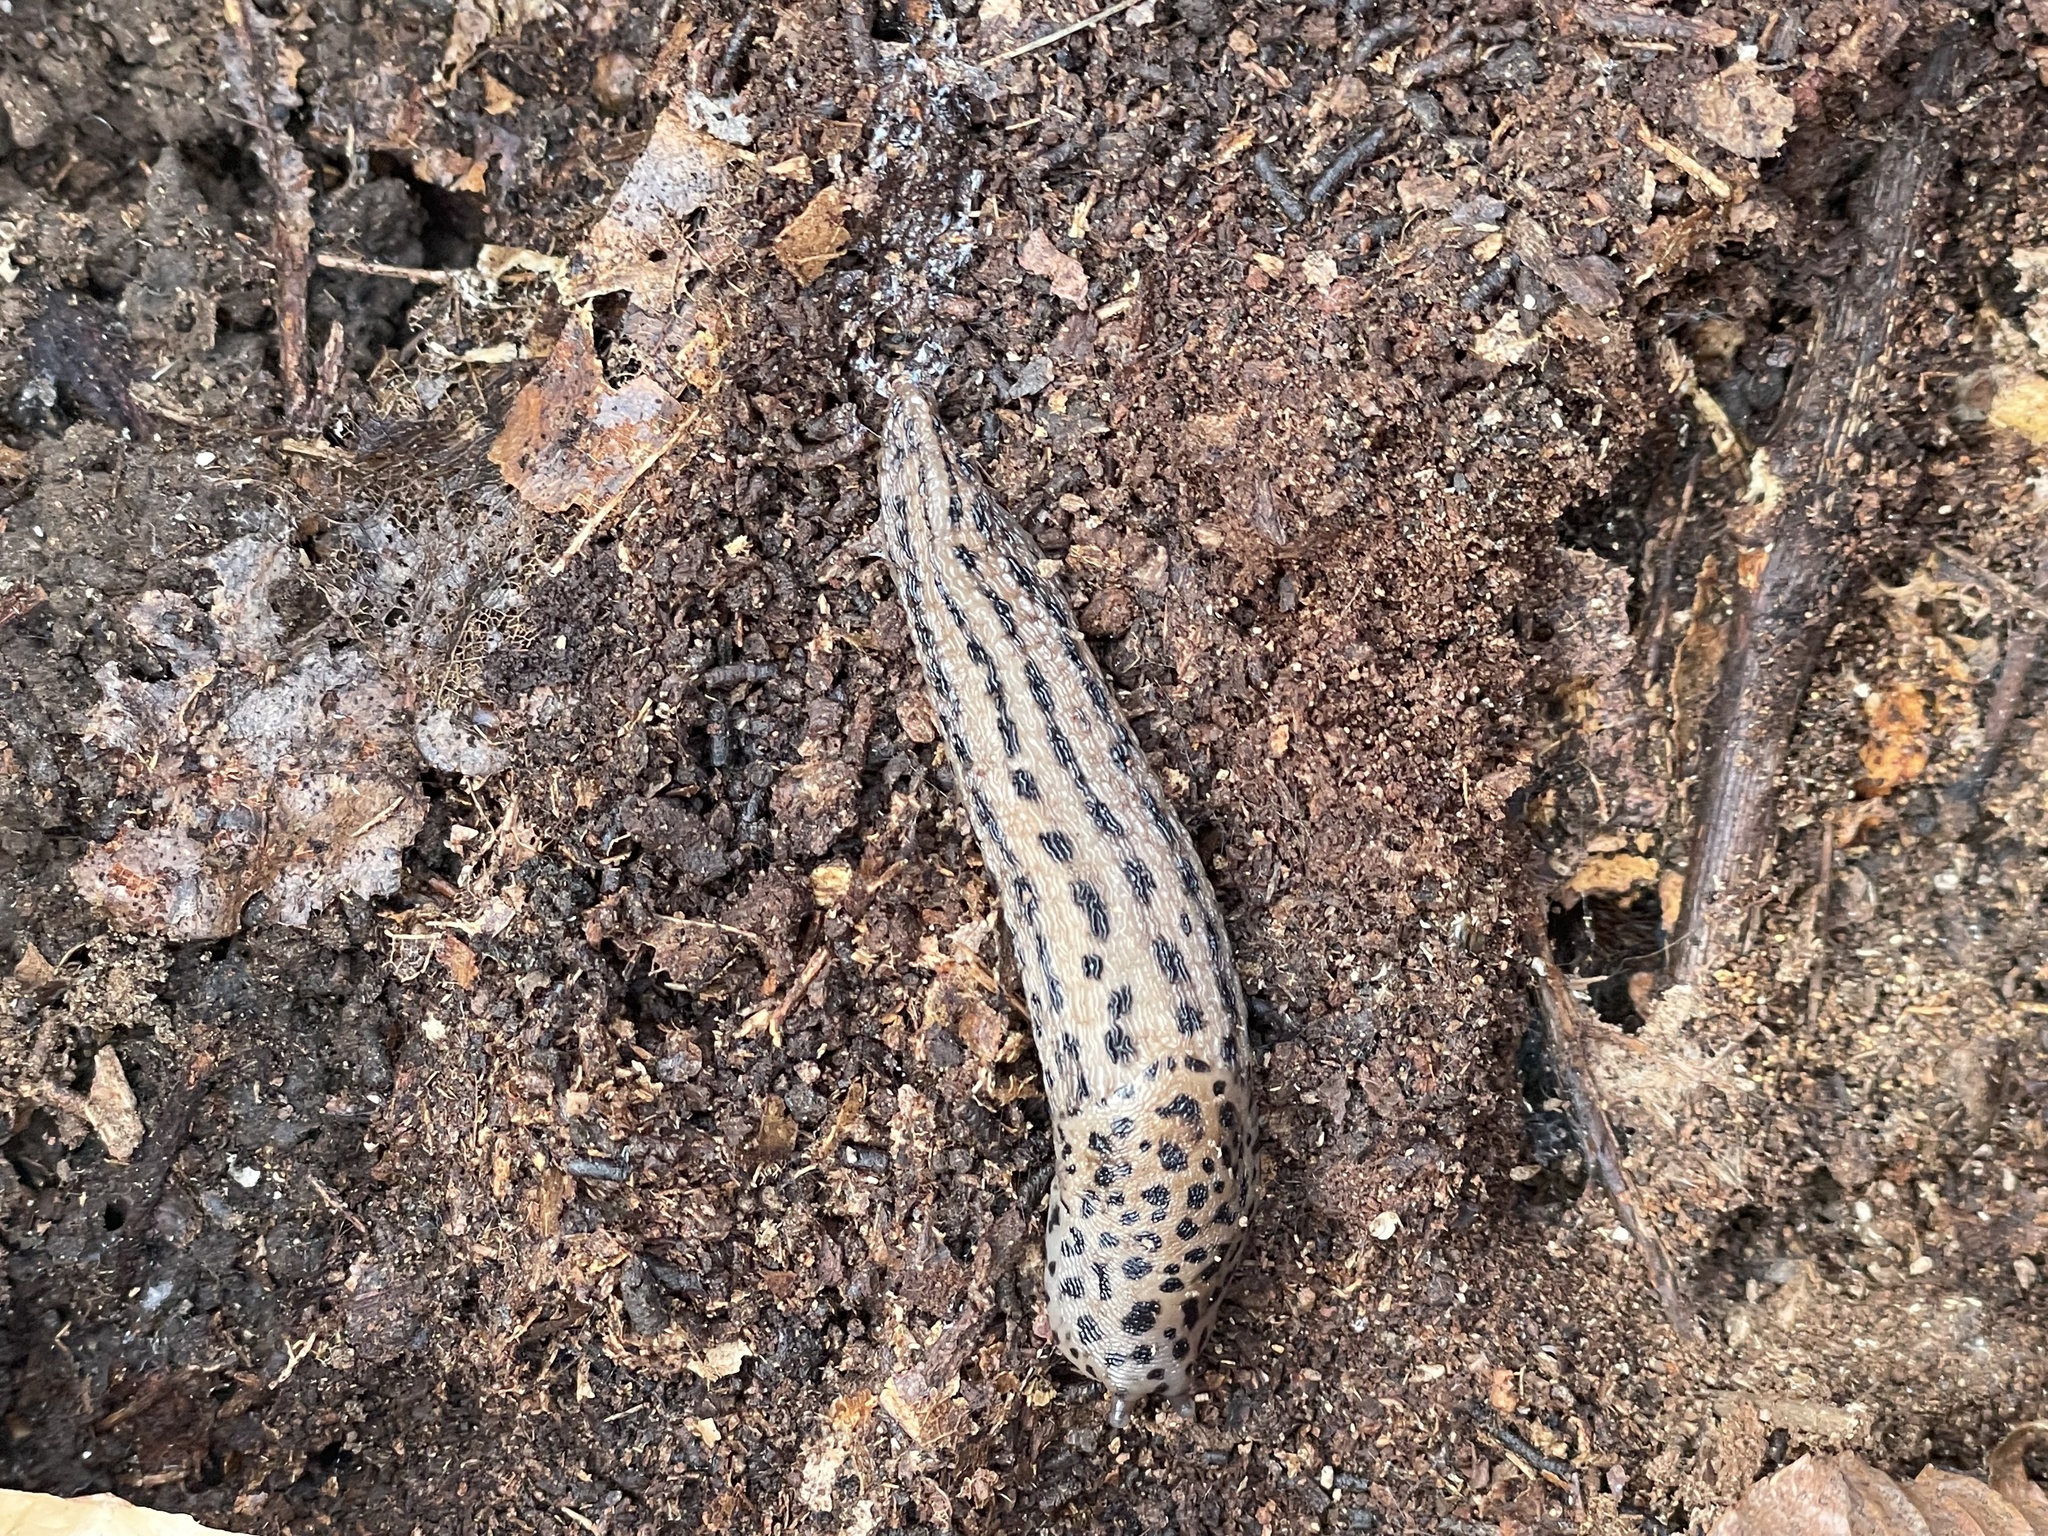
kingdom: Animalia
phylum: Mollusca
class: Gastropoda
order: Stylommatophora
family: Limacidae
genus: Limax
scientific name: Limax maximus
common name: Great grey slug
